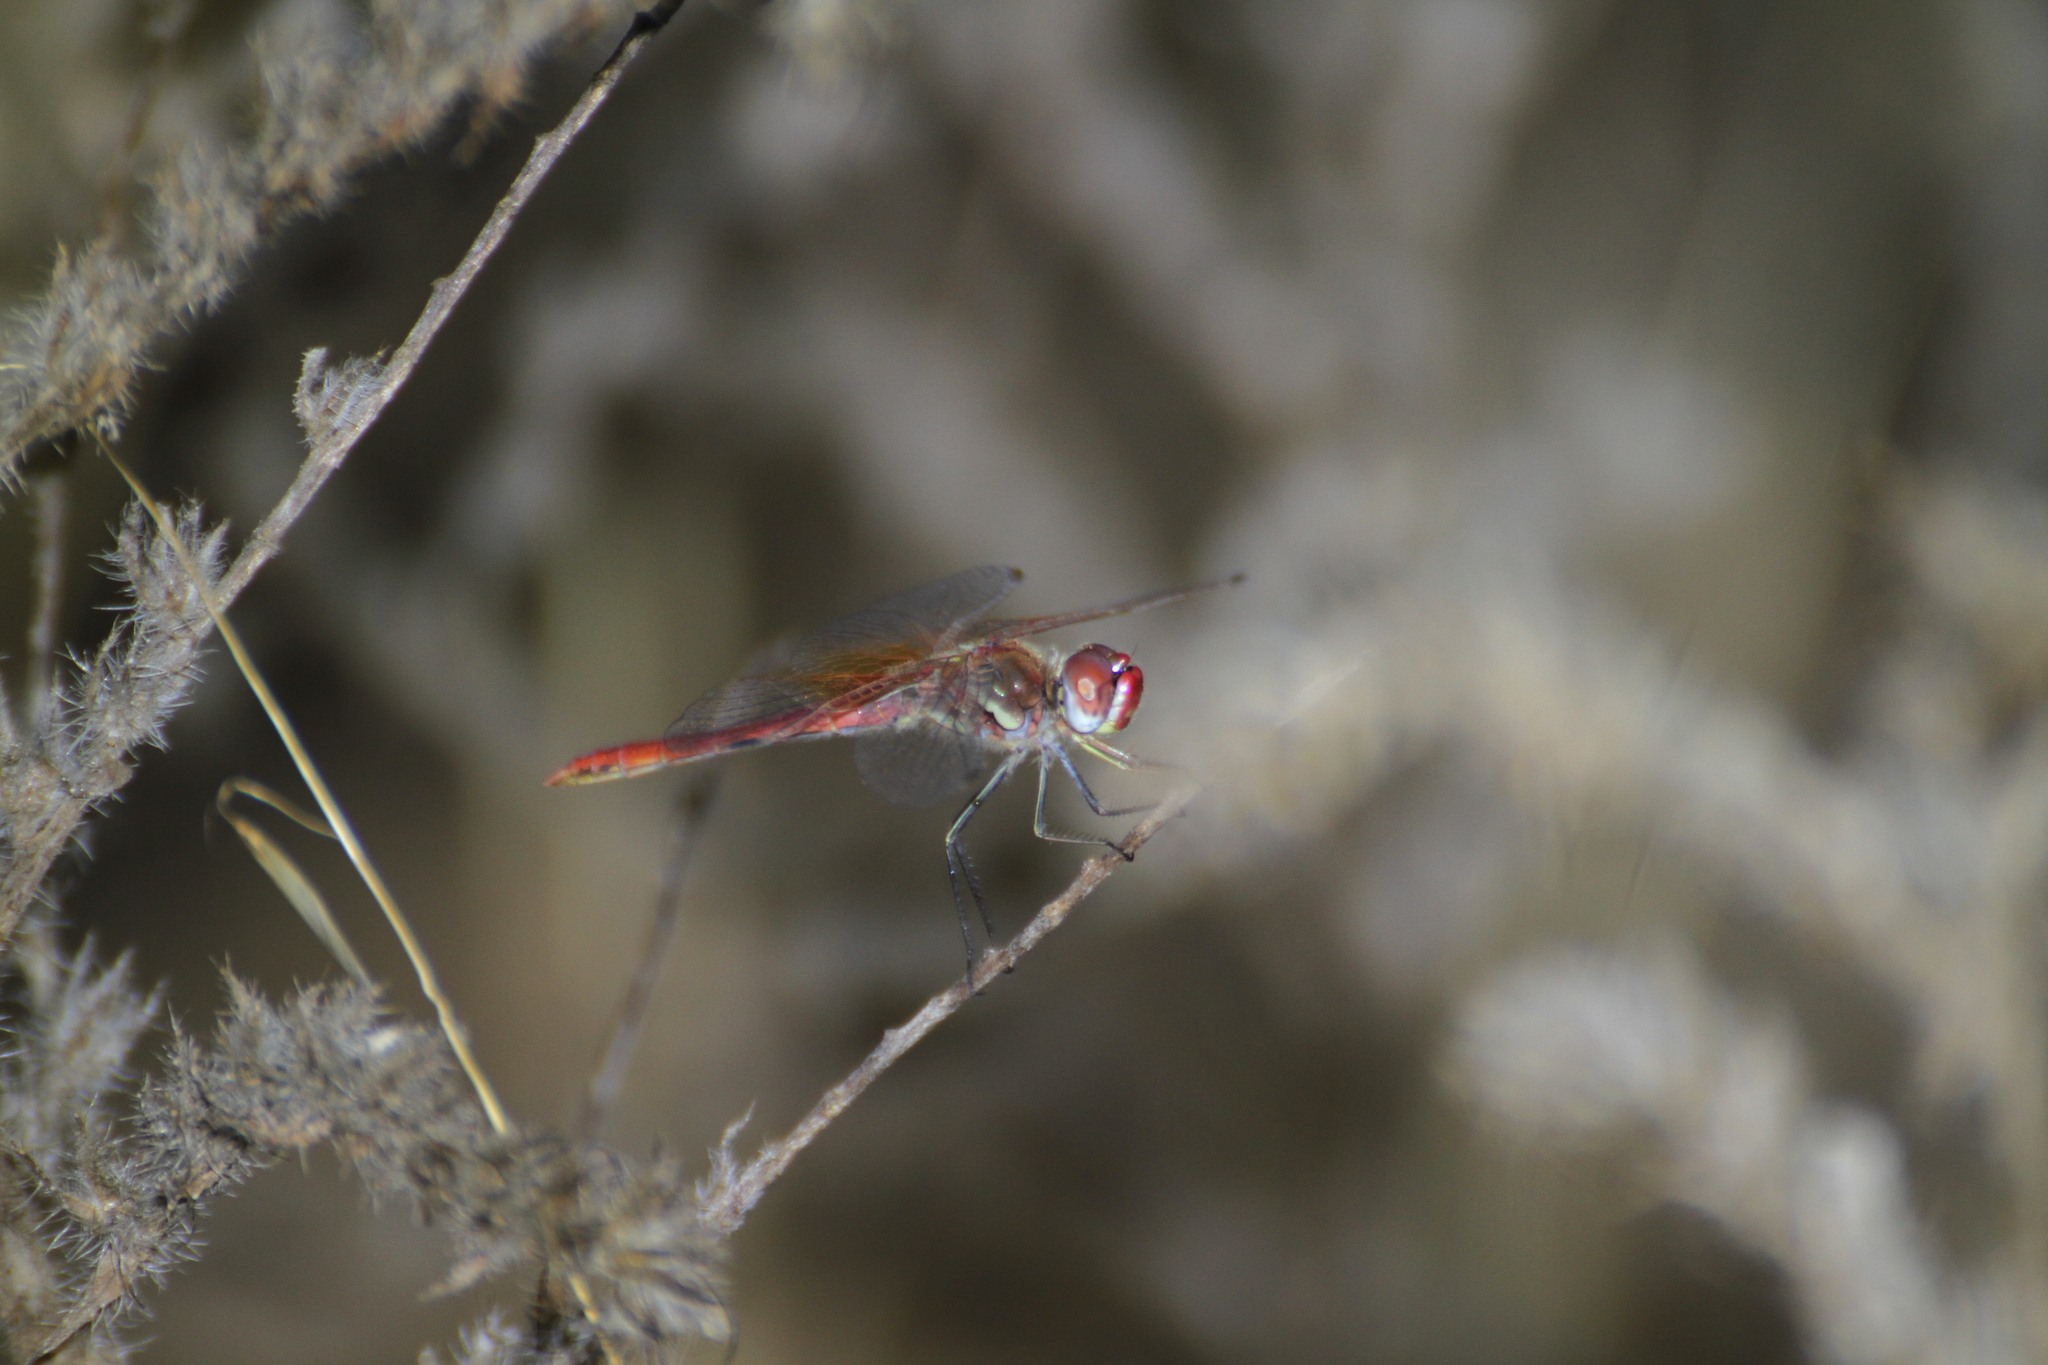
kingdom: Animalia
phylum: Arthropoda
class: Insecta
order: Odonata
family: Libellulidae
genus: Sympetrum
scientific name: Sympetrum fonscolombii
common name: Red-veined darter
